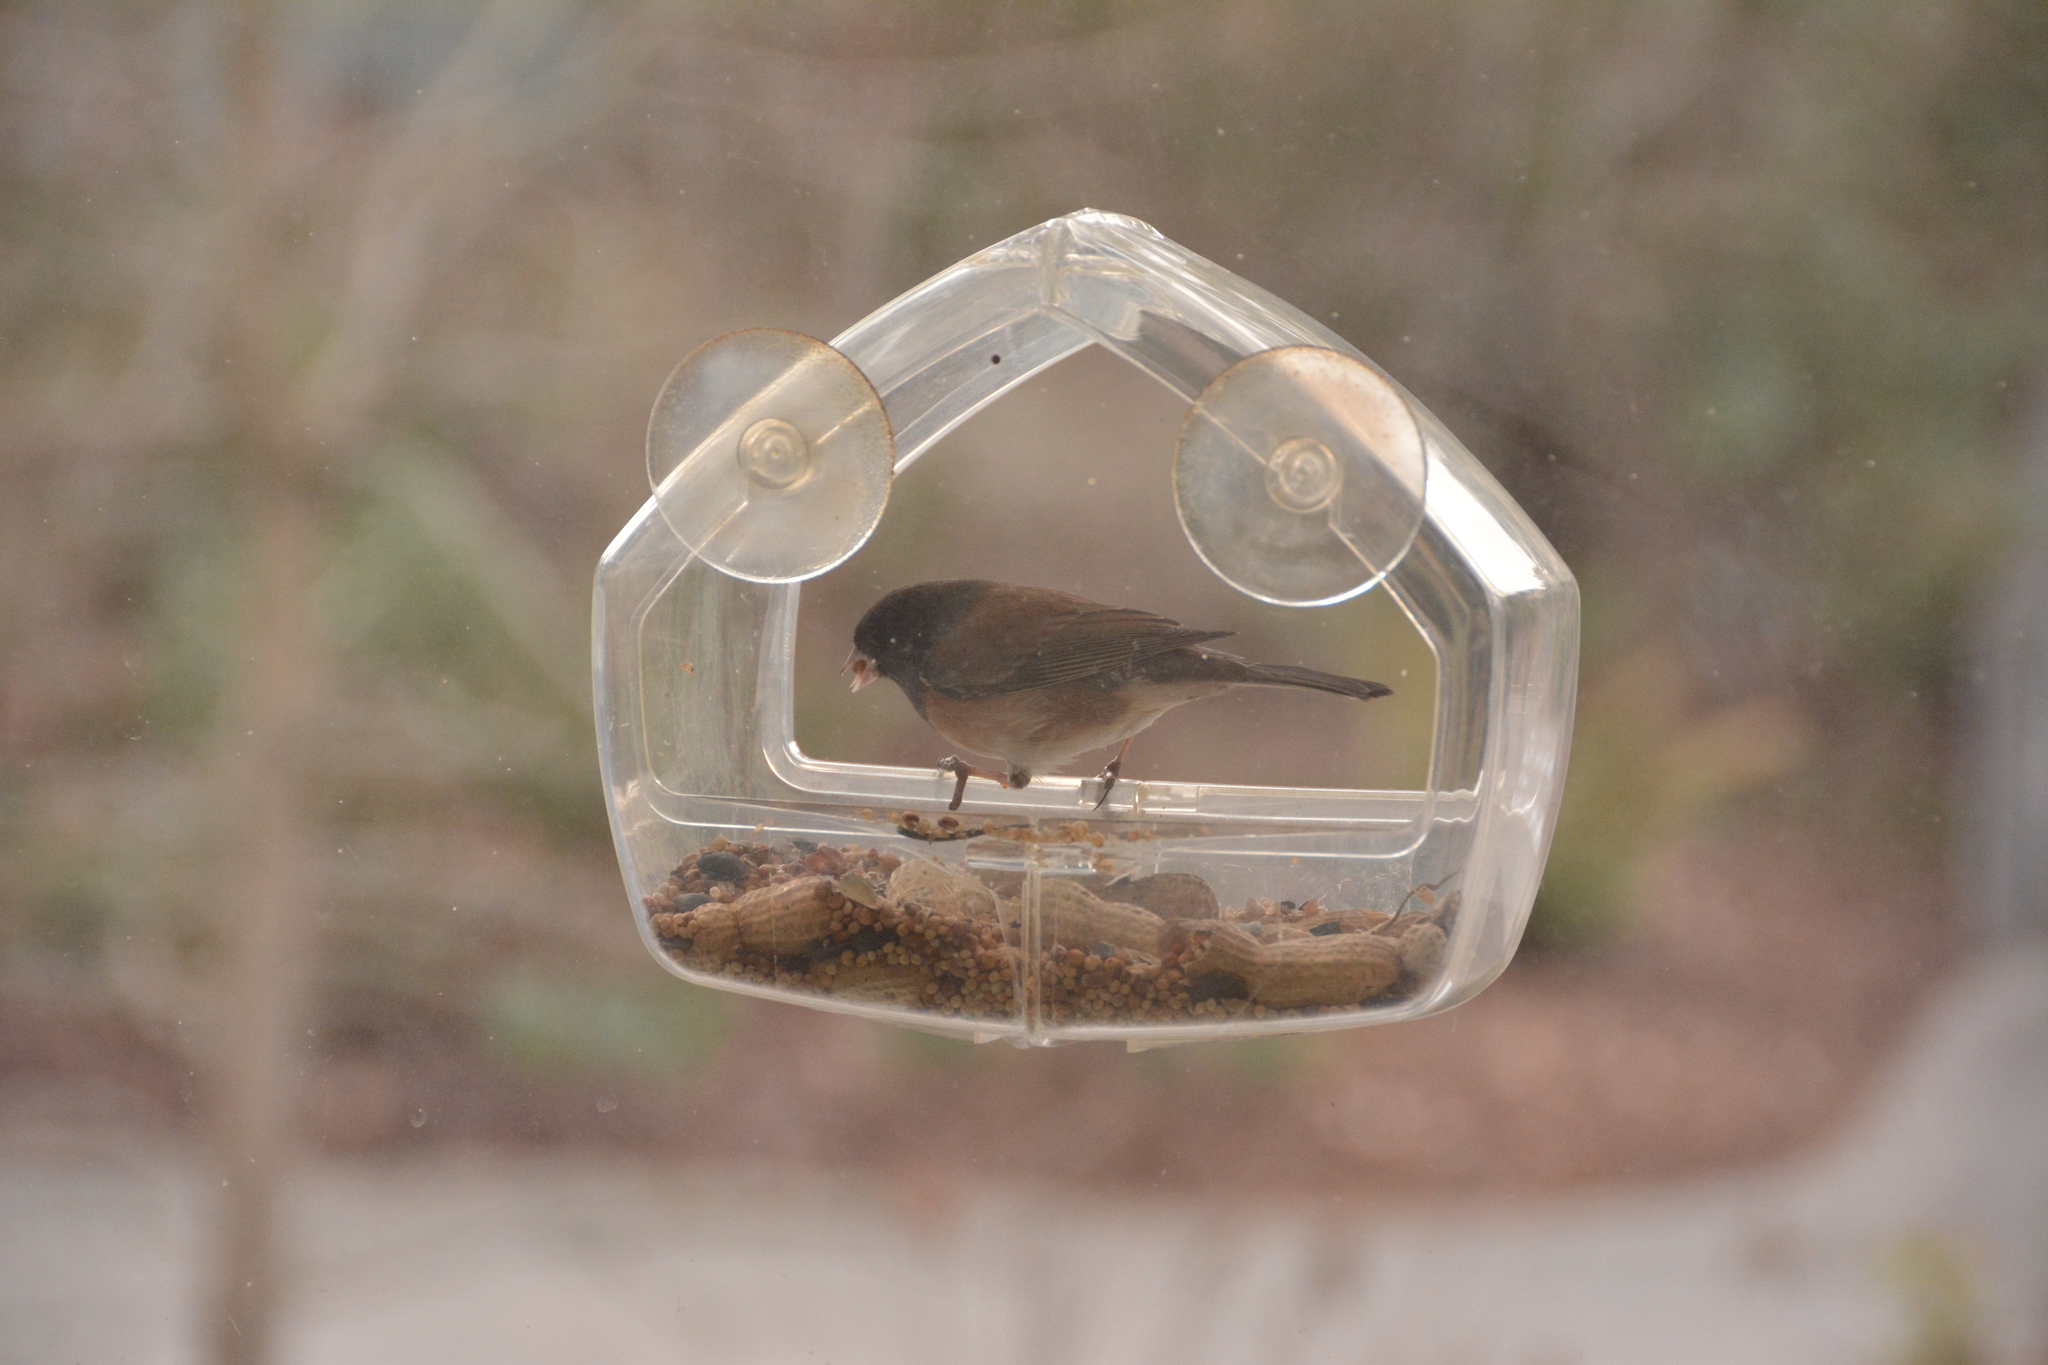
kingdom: Animalia
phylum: Chordata
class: Aves
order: Passeriformes
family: Passerellidae
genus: Junco
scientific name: Junco hyemalis
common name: Dark-eyed junco
